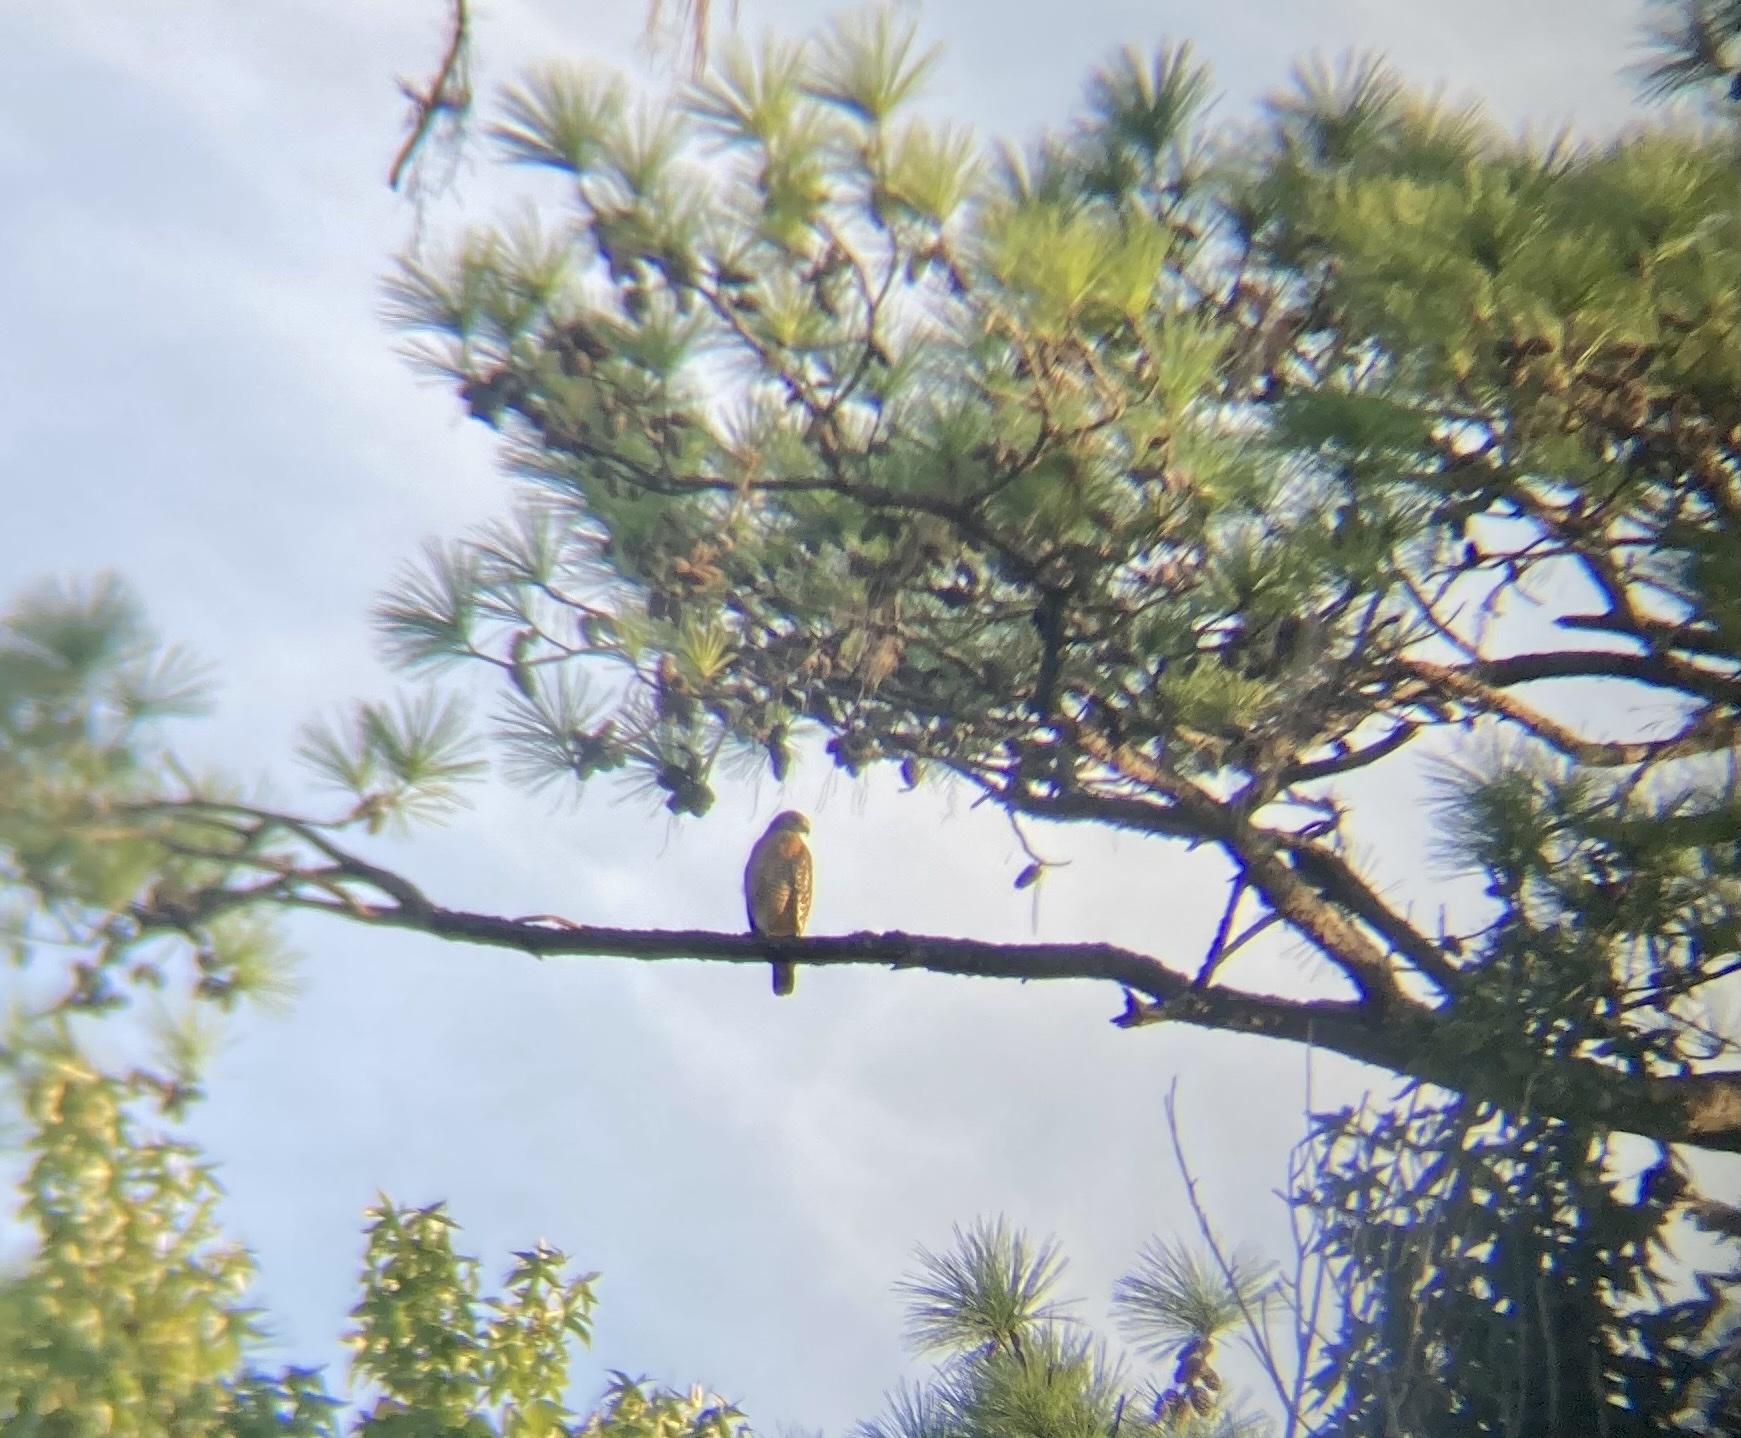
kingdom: Animalia
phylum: Chordata
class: Aves
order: Accipitriformes
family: Accipitridae
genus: Buteo
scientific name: Buteo lineatus
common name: Red-shouldered hawk
